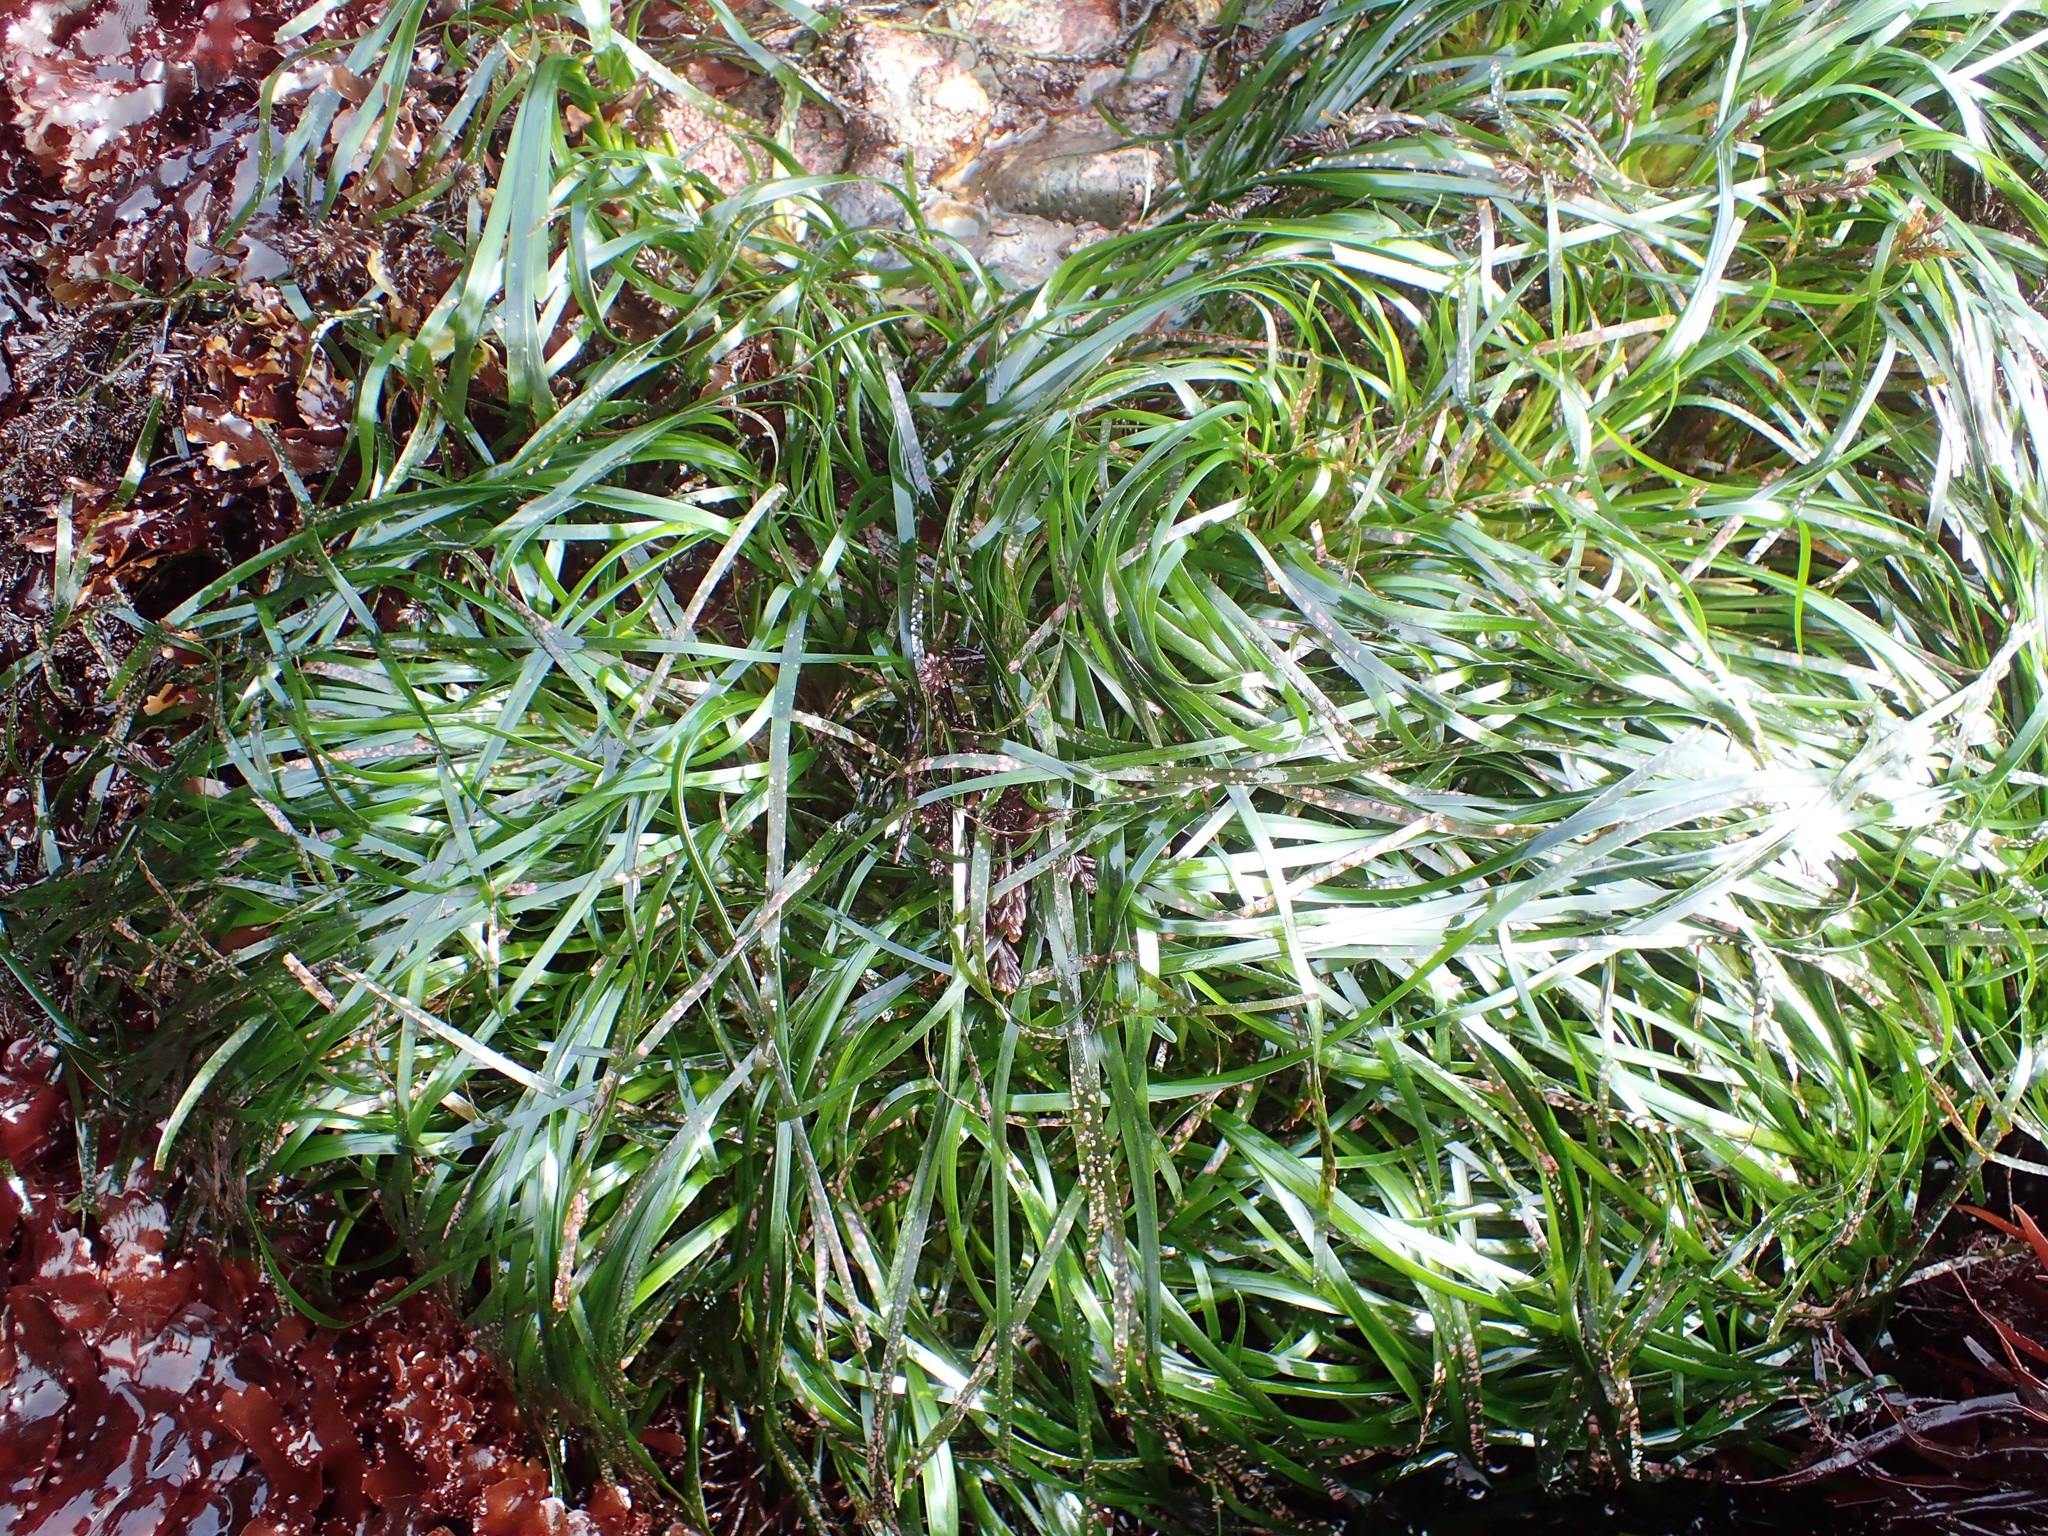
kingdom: Plantae
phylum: Tracheophyta
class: Liliopsida
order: Alismatales
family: Zosteraceae
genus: Phyllospadix
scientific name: Phyllospadix scouleri
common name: Species code: ps
